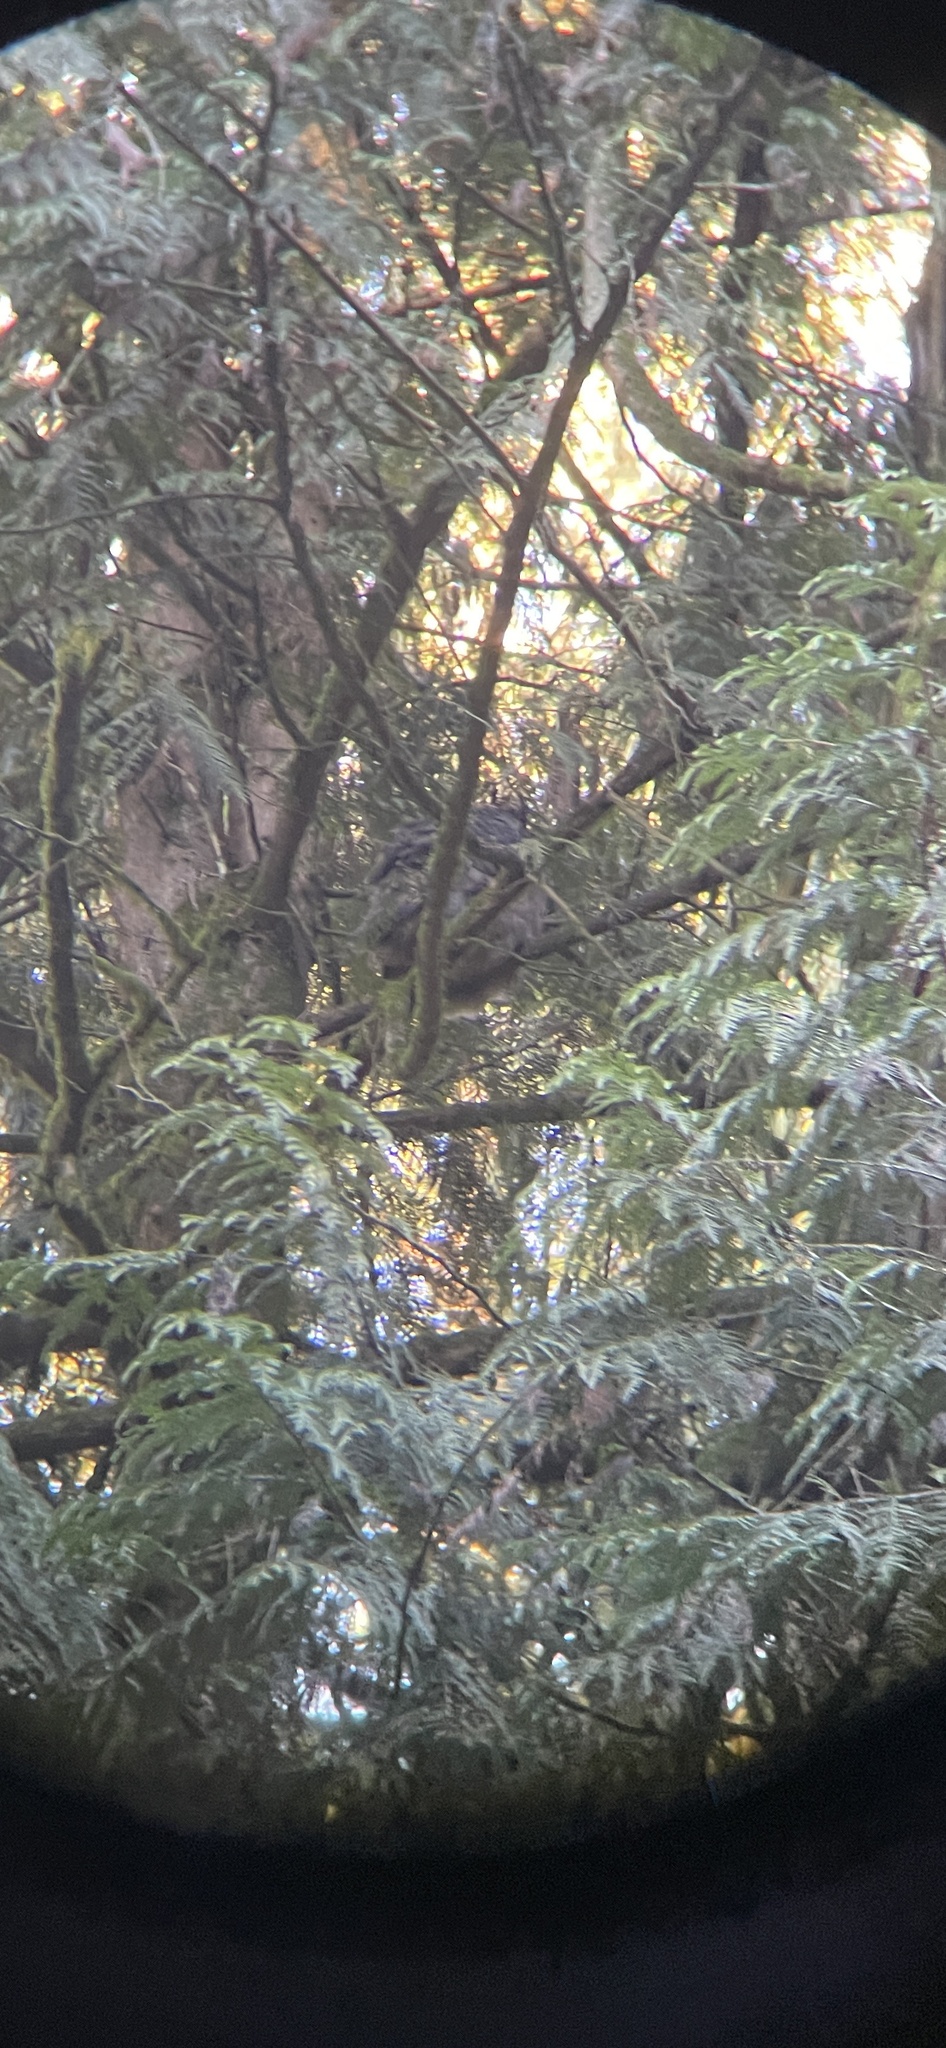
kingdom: Animalia
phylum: Chordata
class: Aves
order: Strigiformes
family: Strigidae
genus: Bubo
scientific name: Bubo virginianus
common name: Great horned owl
